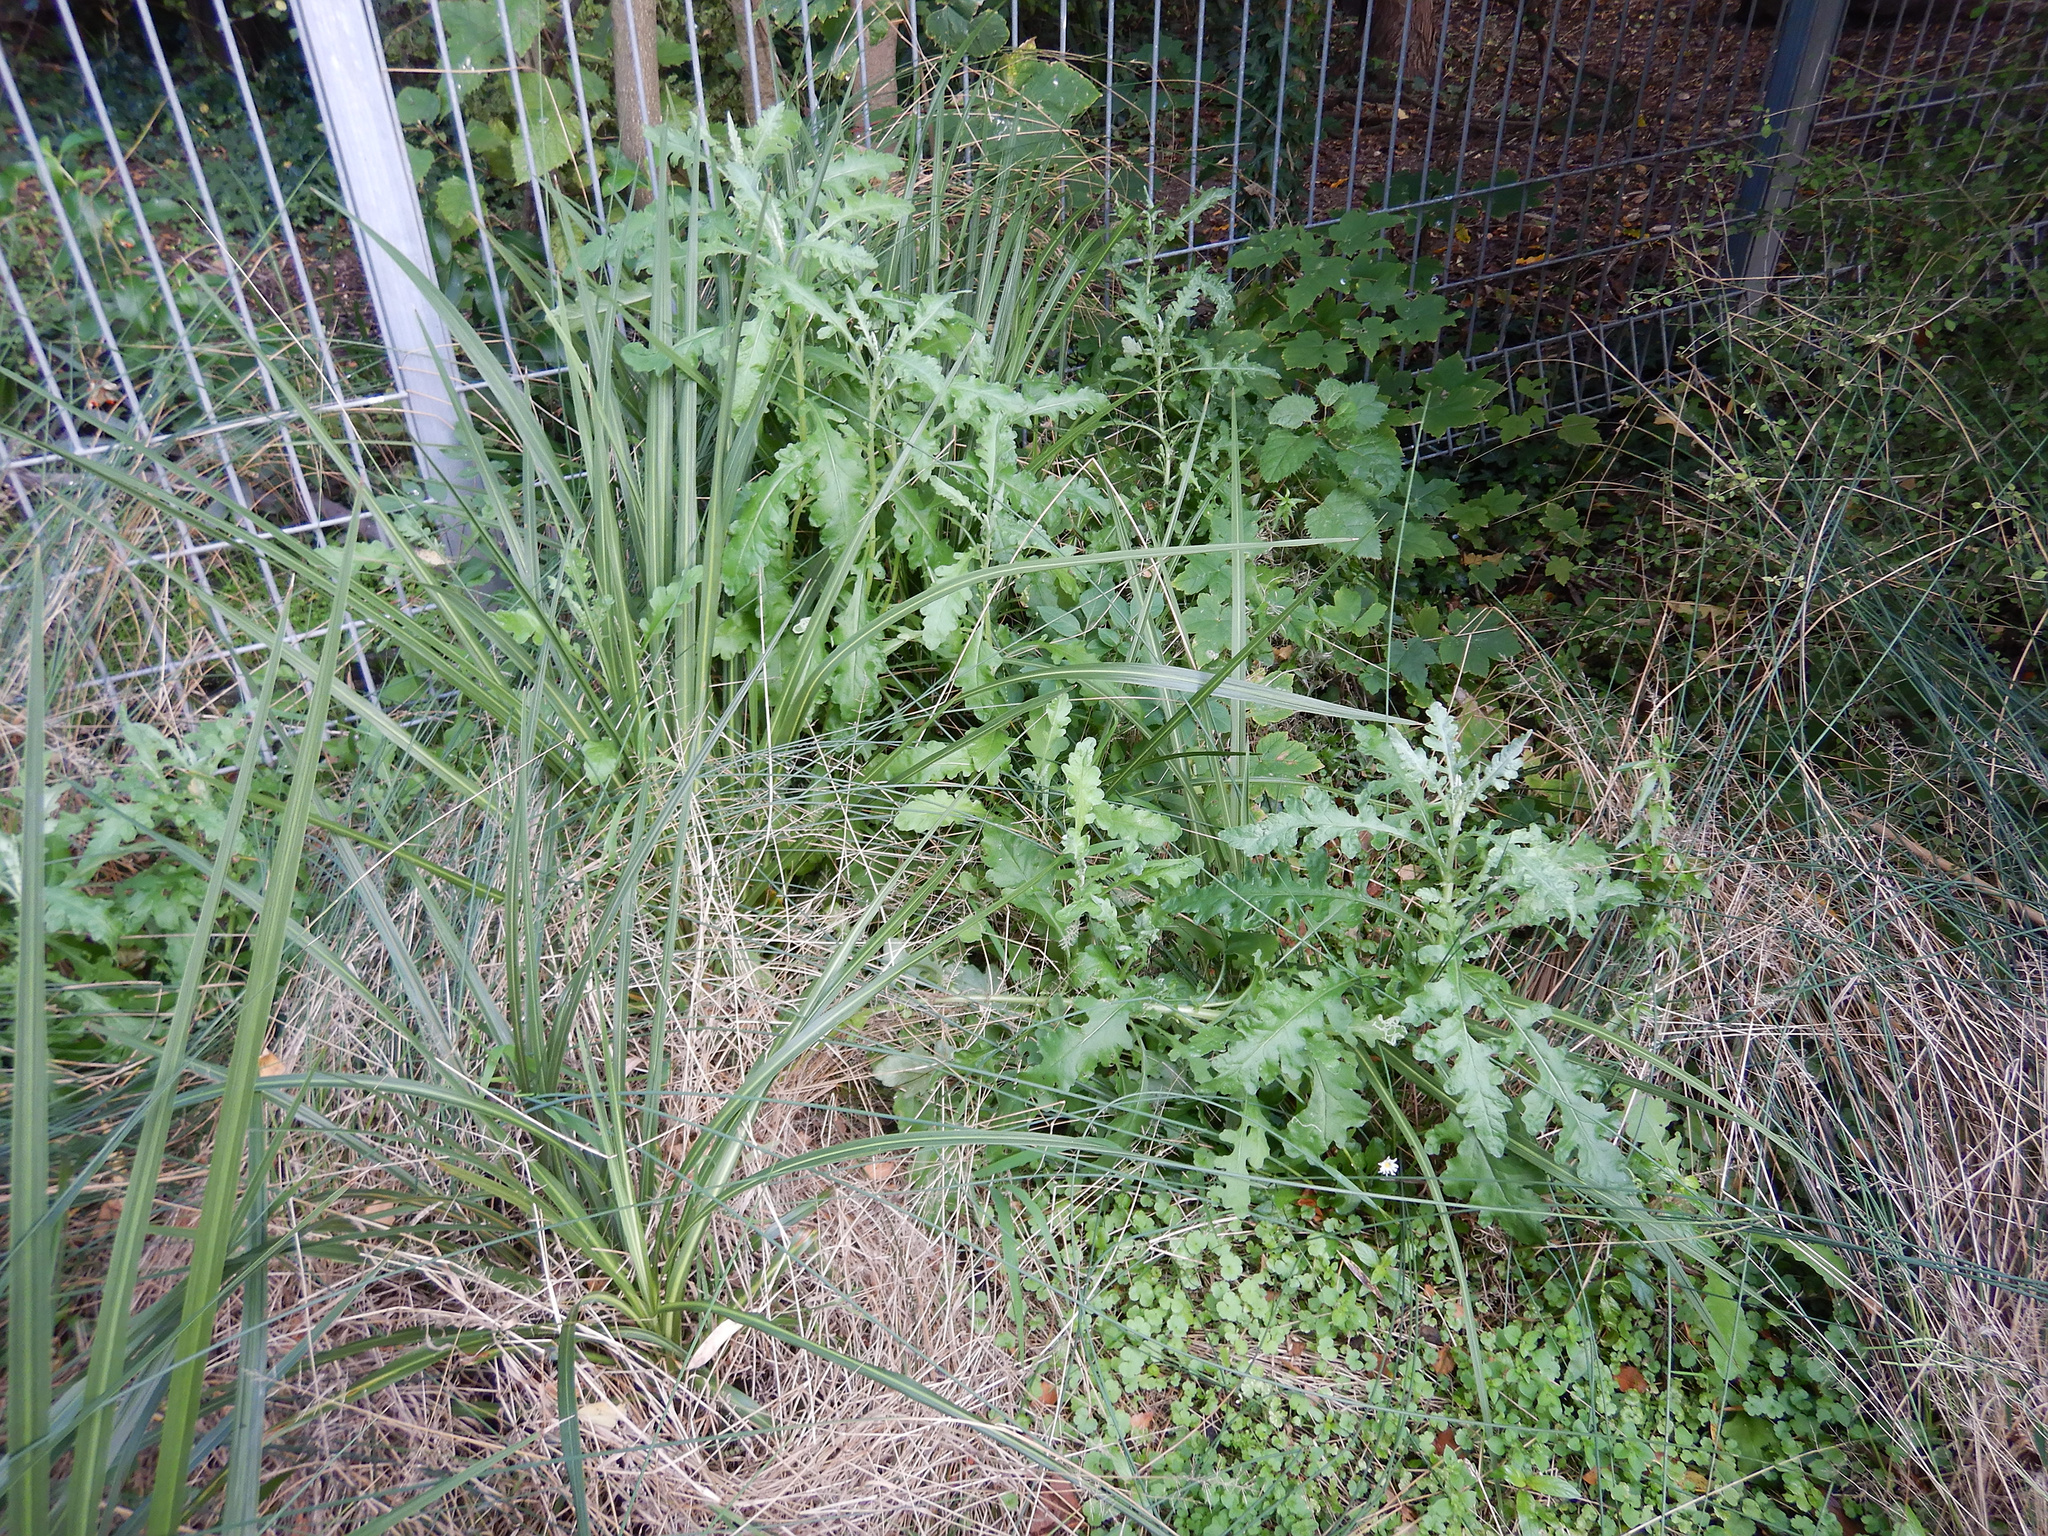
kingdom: Plantae
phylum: Tracheophyta
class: Magnoliopsida
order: Asterales
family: Asteraceae
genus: Senecio
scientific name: Senecio glomeratus
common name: Cutleaf burnweed
